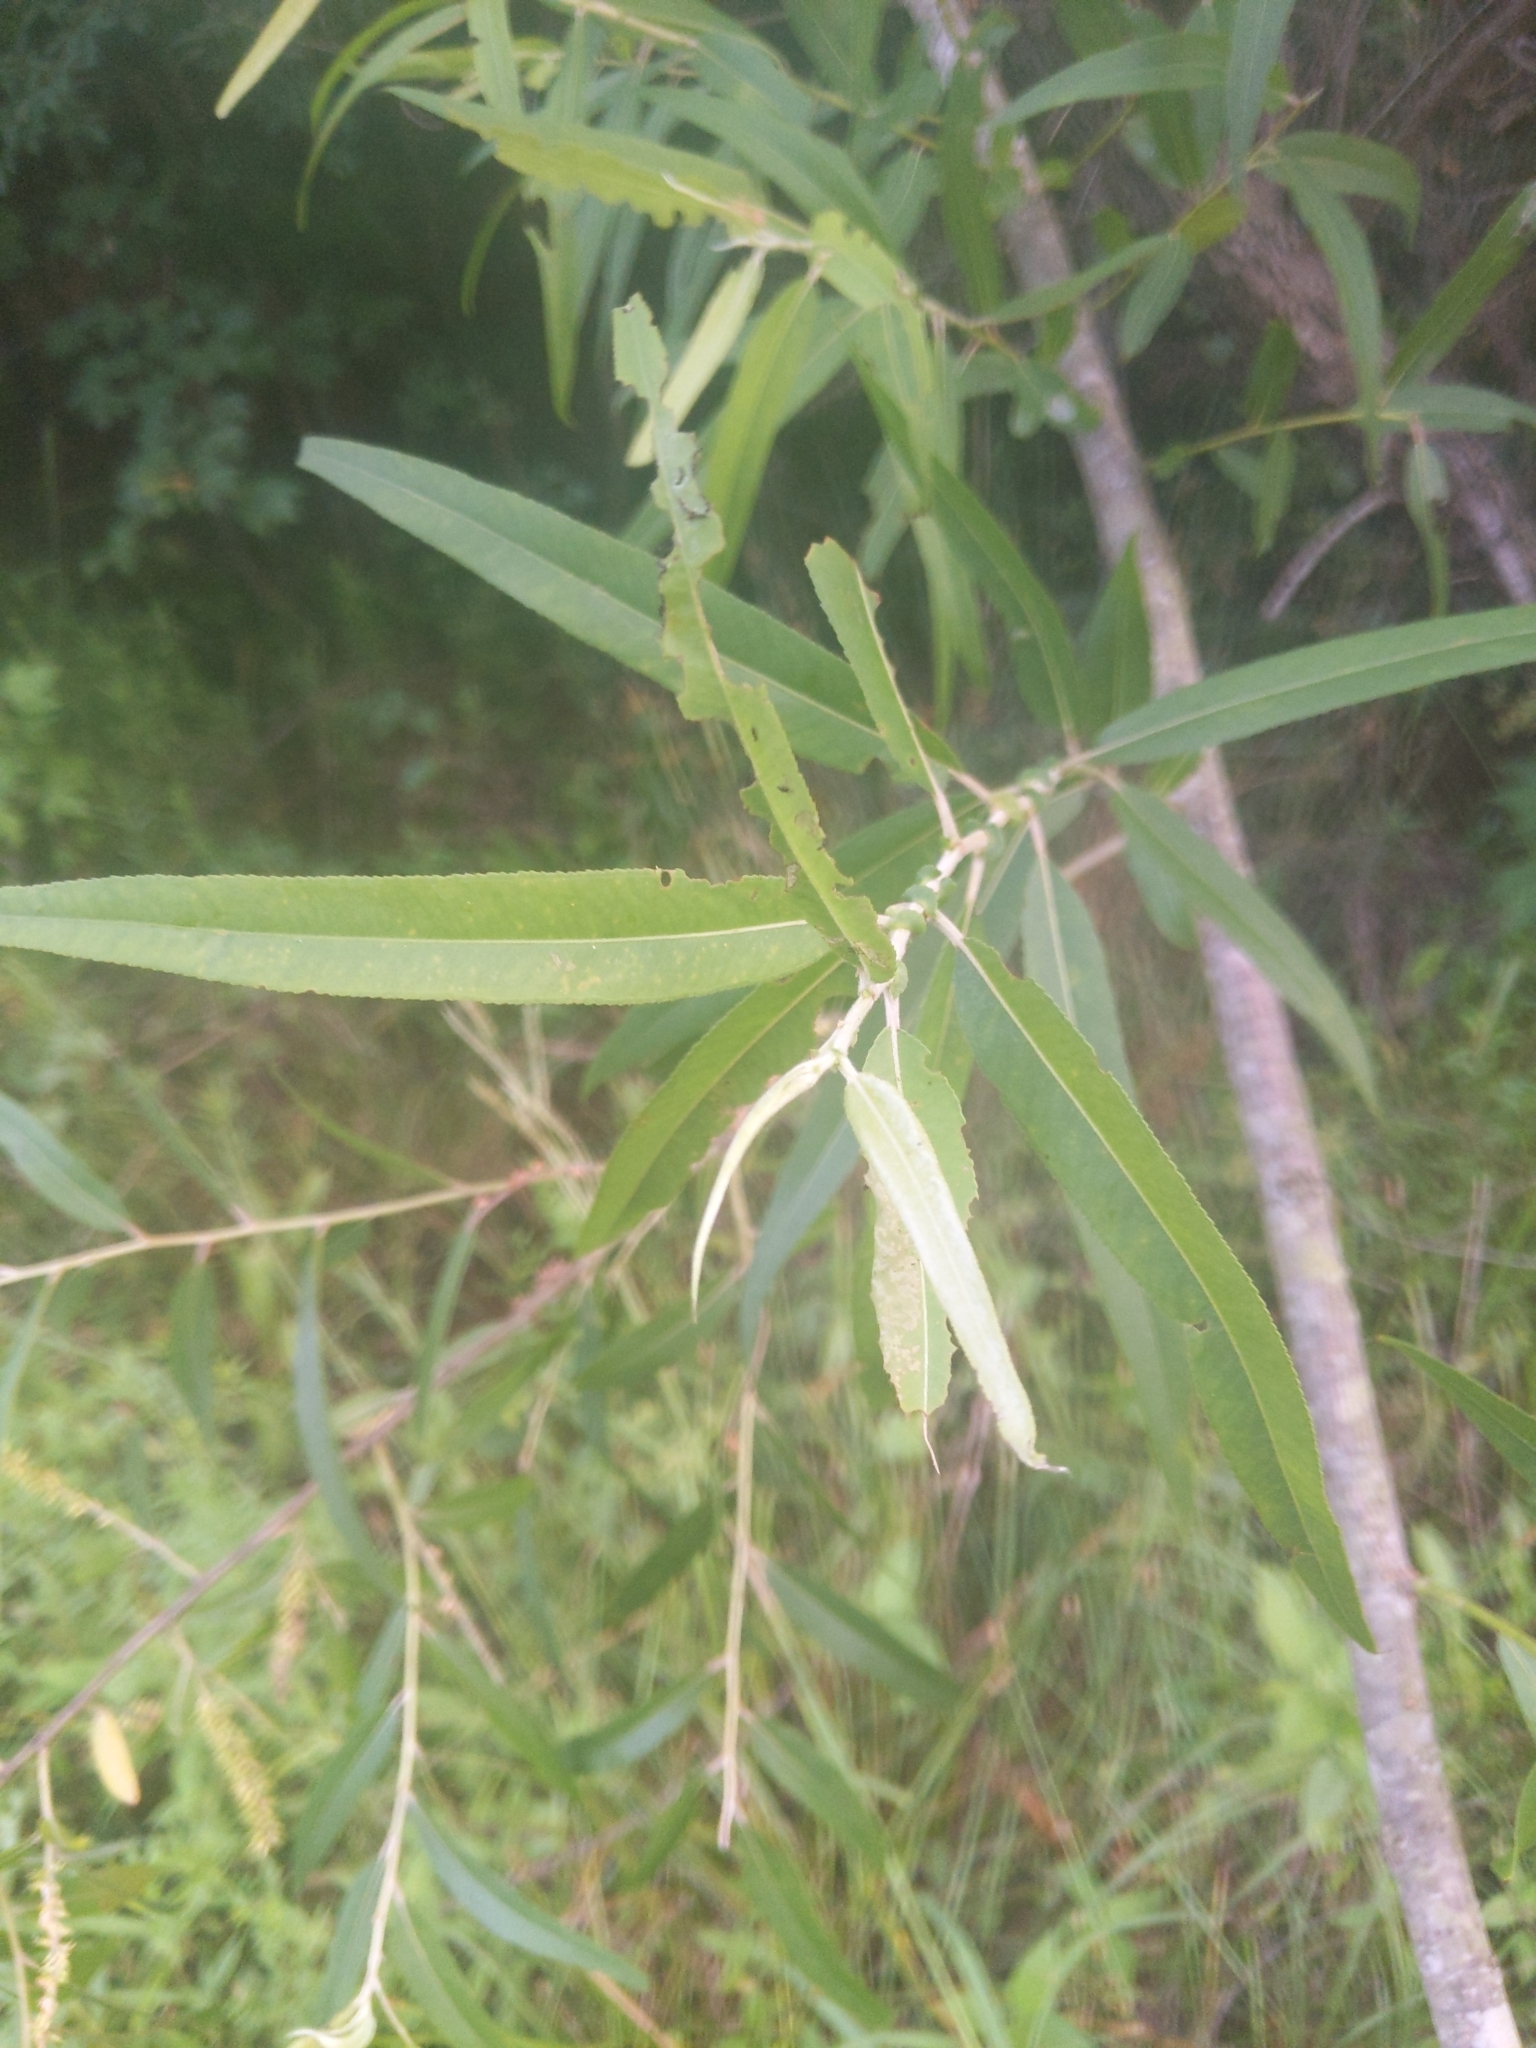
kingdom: Plantae
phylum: Tracheophyta
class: Magnoliopsida
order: Malpighiales
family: Salicaceae
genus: Salix
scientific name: Salix nigra
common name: Black willow
